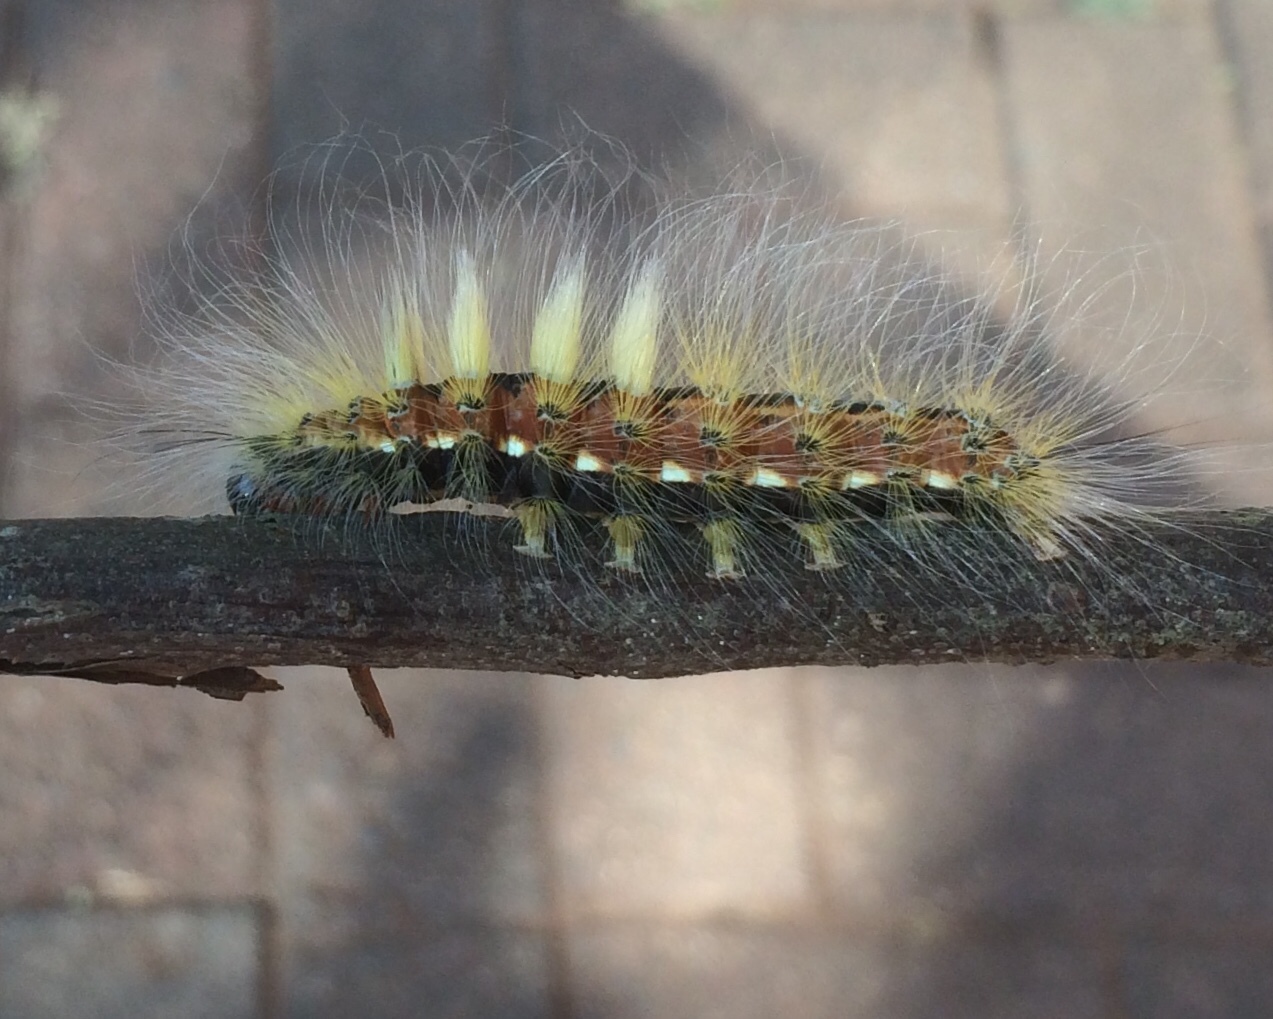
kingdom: Animalia
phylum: Arthropoda
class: Insecta
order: Lepidoptera
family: Erebidae
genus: Dasychira
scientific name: Dasychira georgiana
